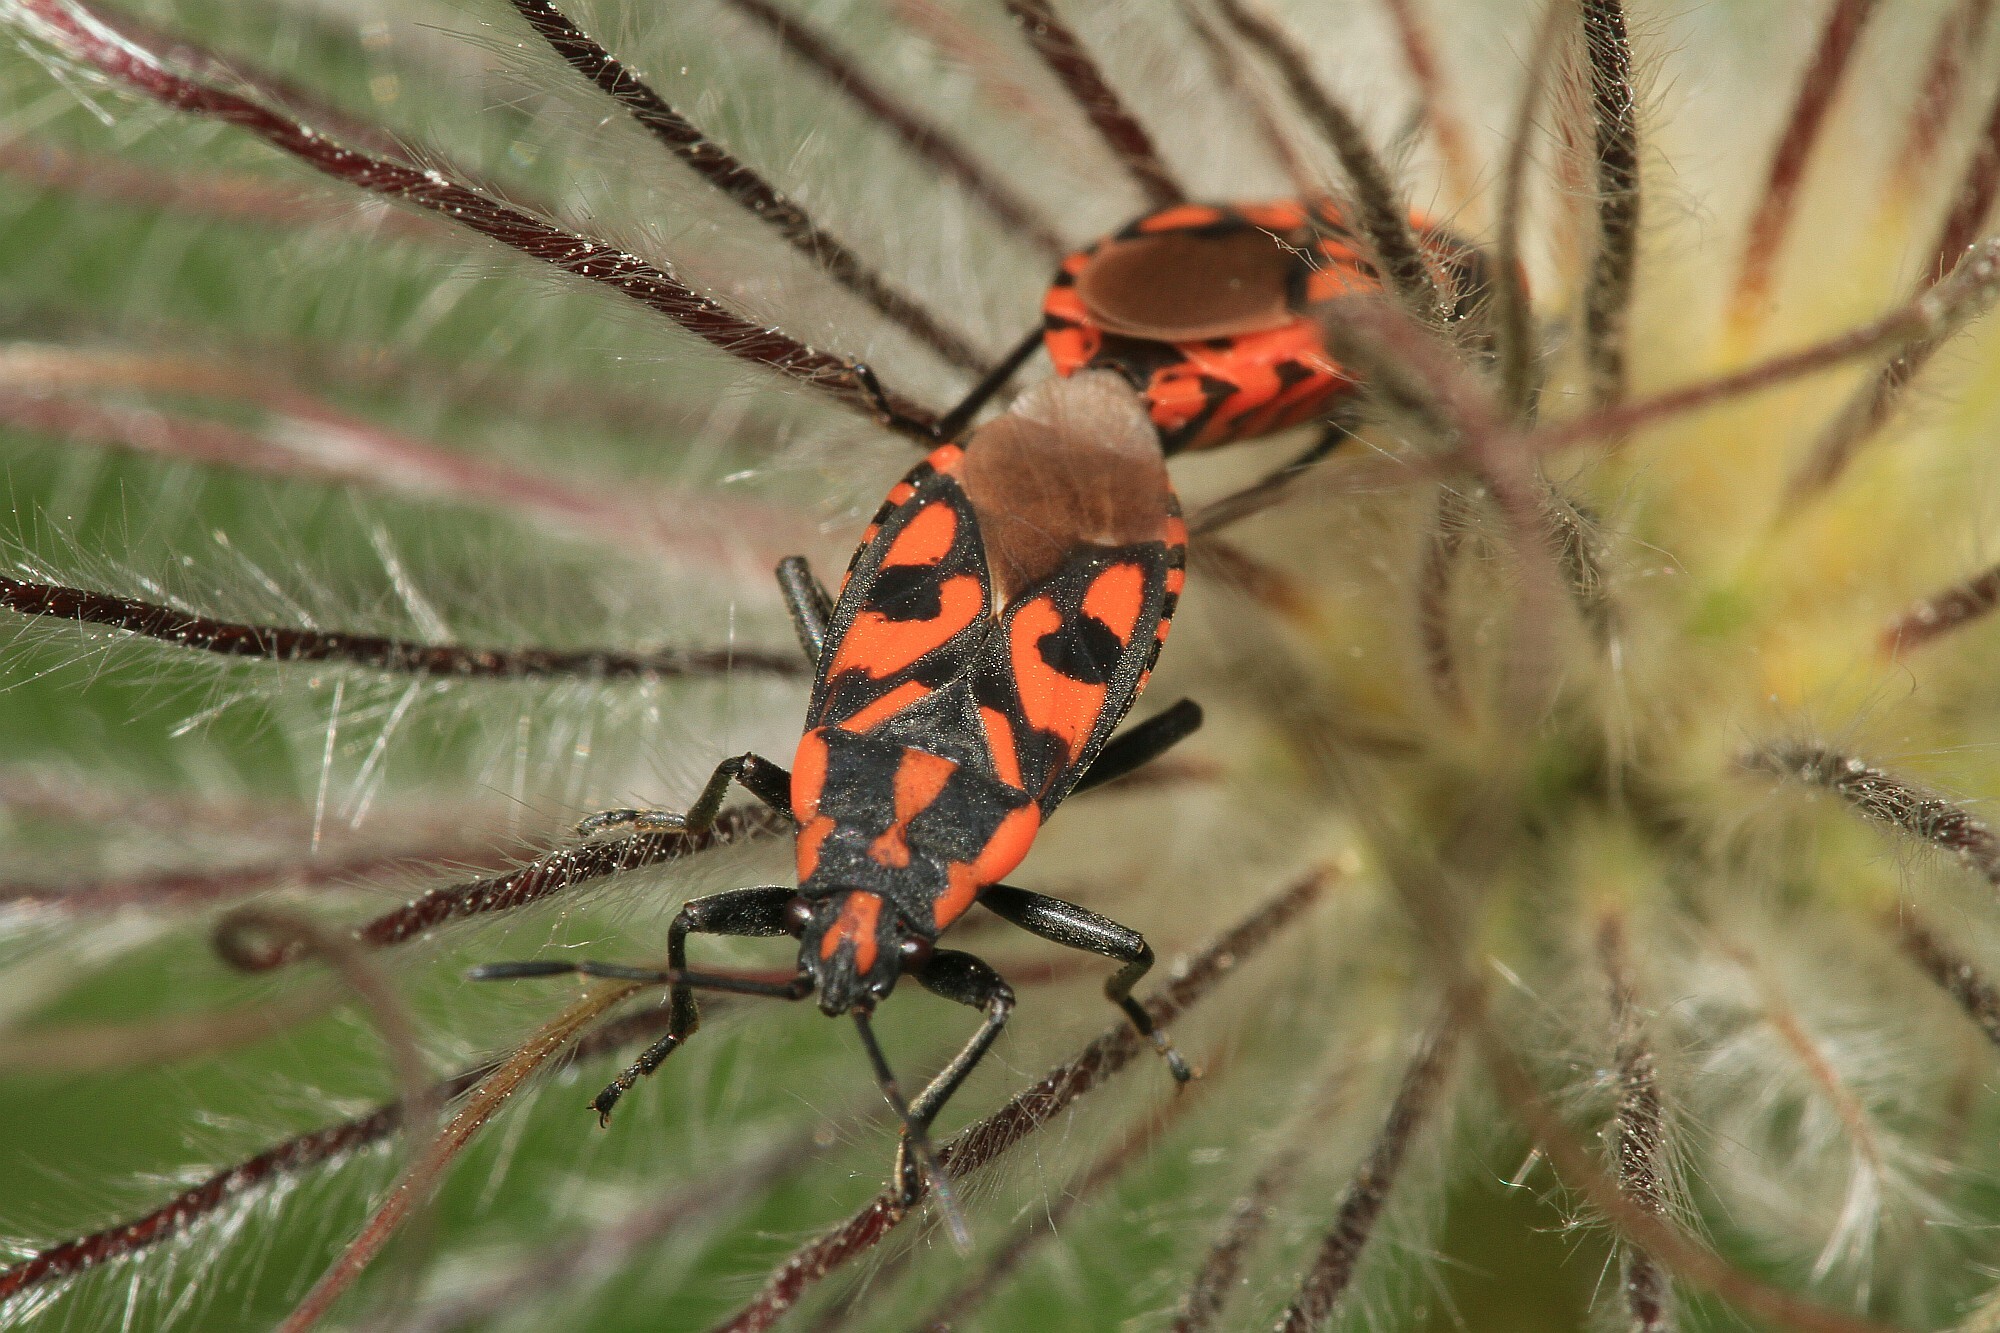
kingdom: Animalia
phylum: Arthropoda
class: Insecta
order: Hemiptera
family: Lygaeidae
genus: Spilostethus
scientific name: Spilostethus saxatilis
